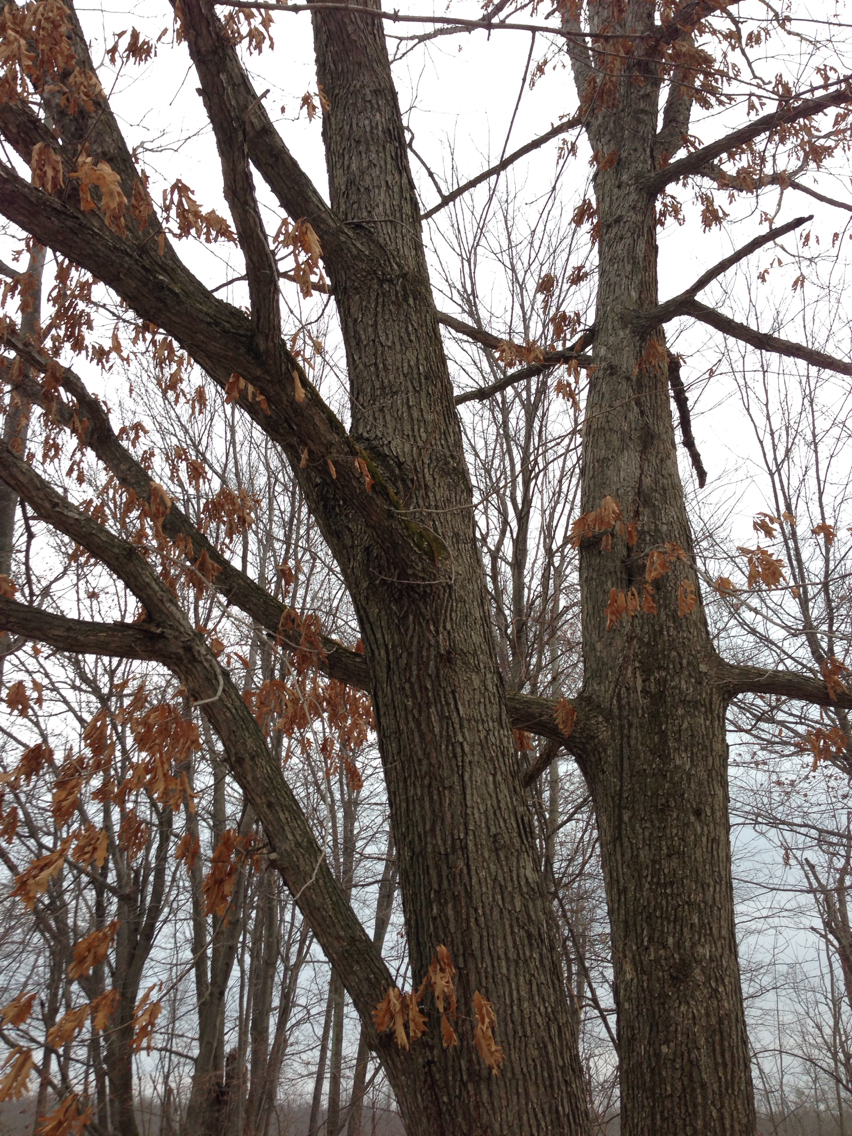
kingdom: Plantae
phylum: Tracheophyta
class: Magnoliopsida
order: Fagales
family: Fagaceae
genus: Quercus
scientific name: Quercus alba
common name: White oak
